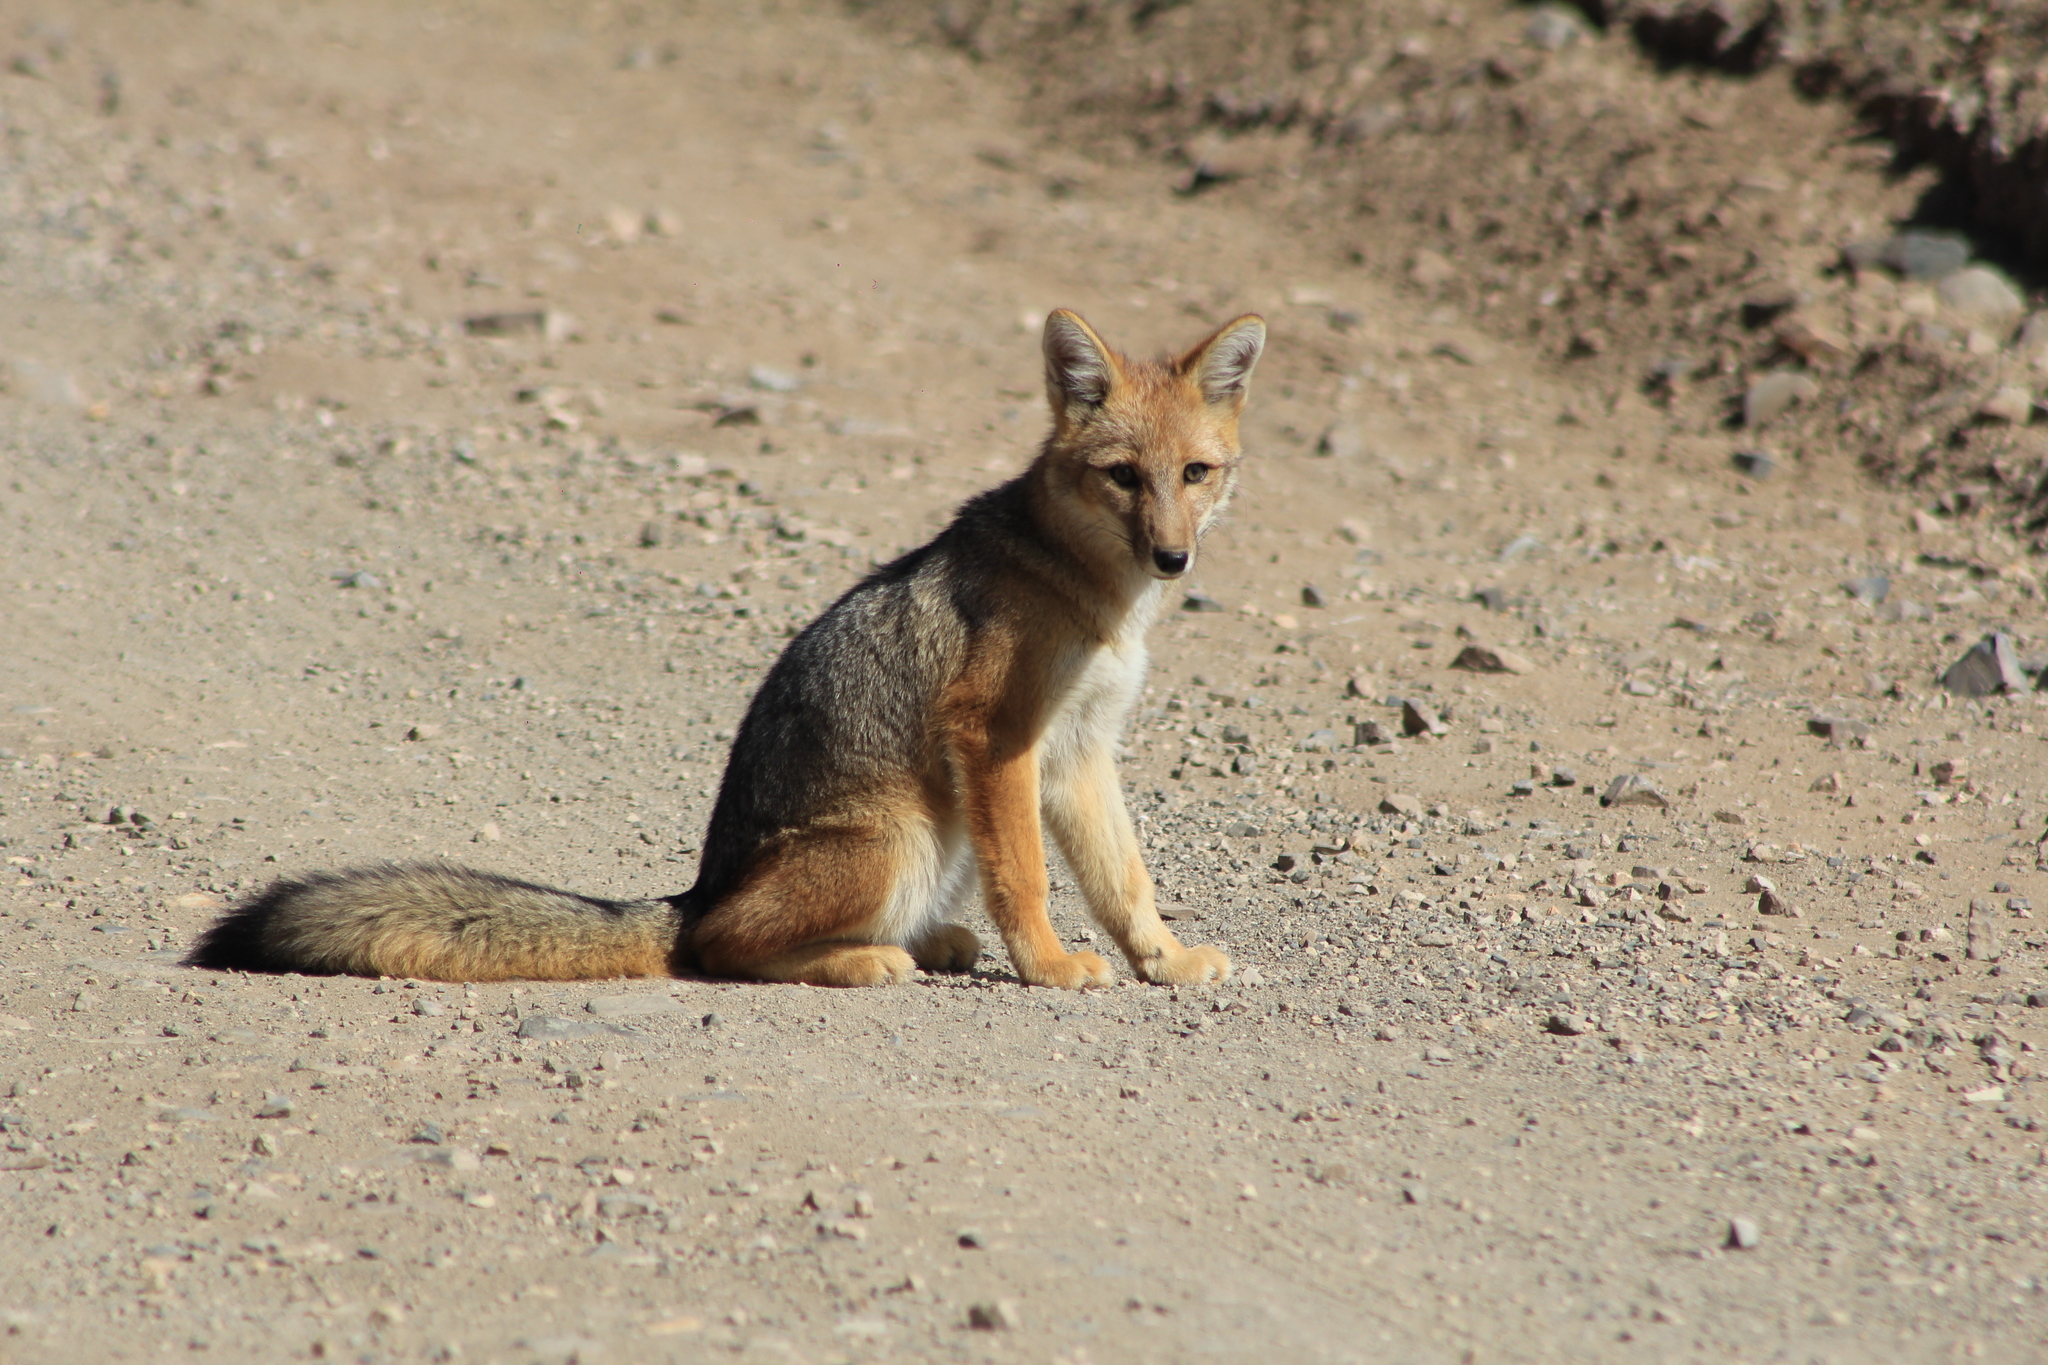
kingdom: Animalia
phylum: Chordata
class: Mammalia
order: Carnivora
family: Canidae
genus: Lycalopex
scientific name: Lycalopex culpaeus
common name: Culpeo
